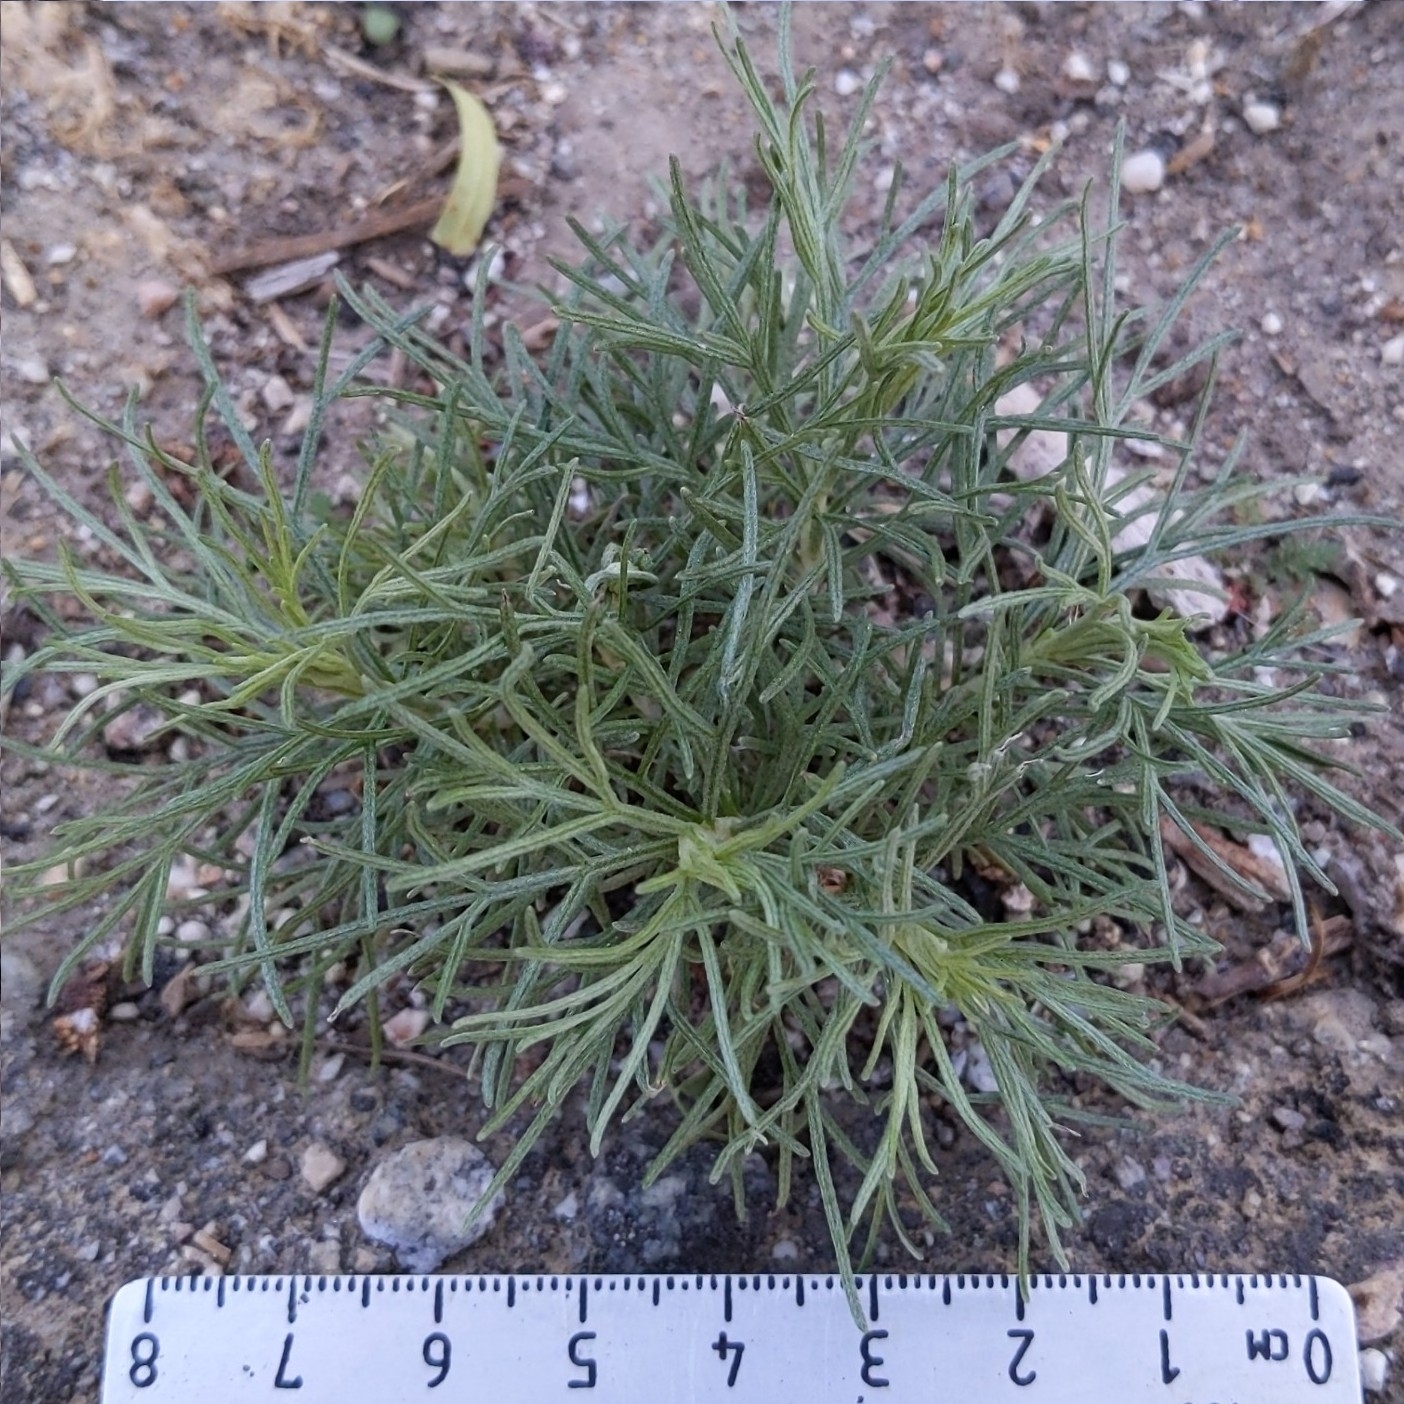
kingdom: Plantae
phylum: Tracheophyta
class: Magnoliopsida
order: Asterales
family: Asteraceae
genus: Artemisia
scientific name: Artemisia californica
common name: California sagebrush
